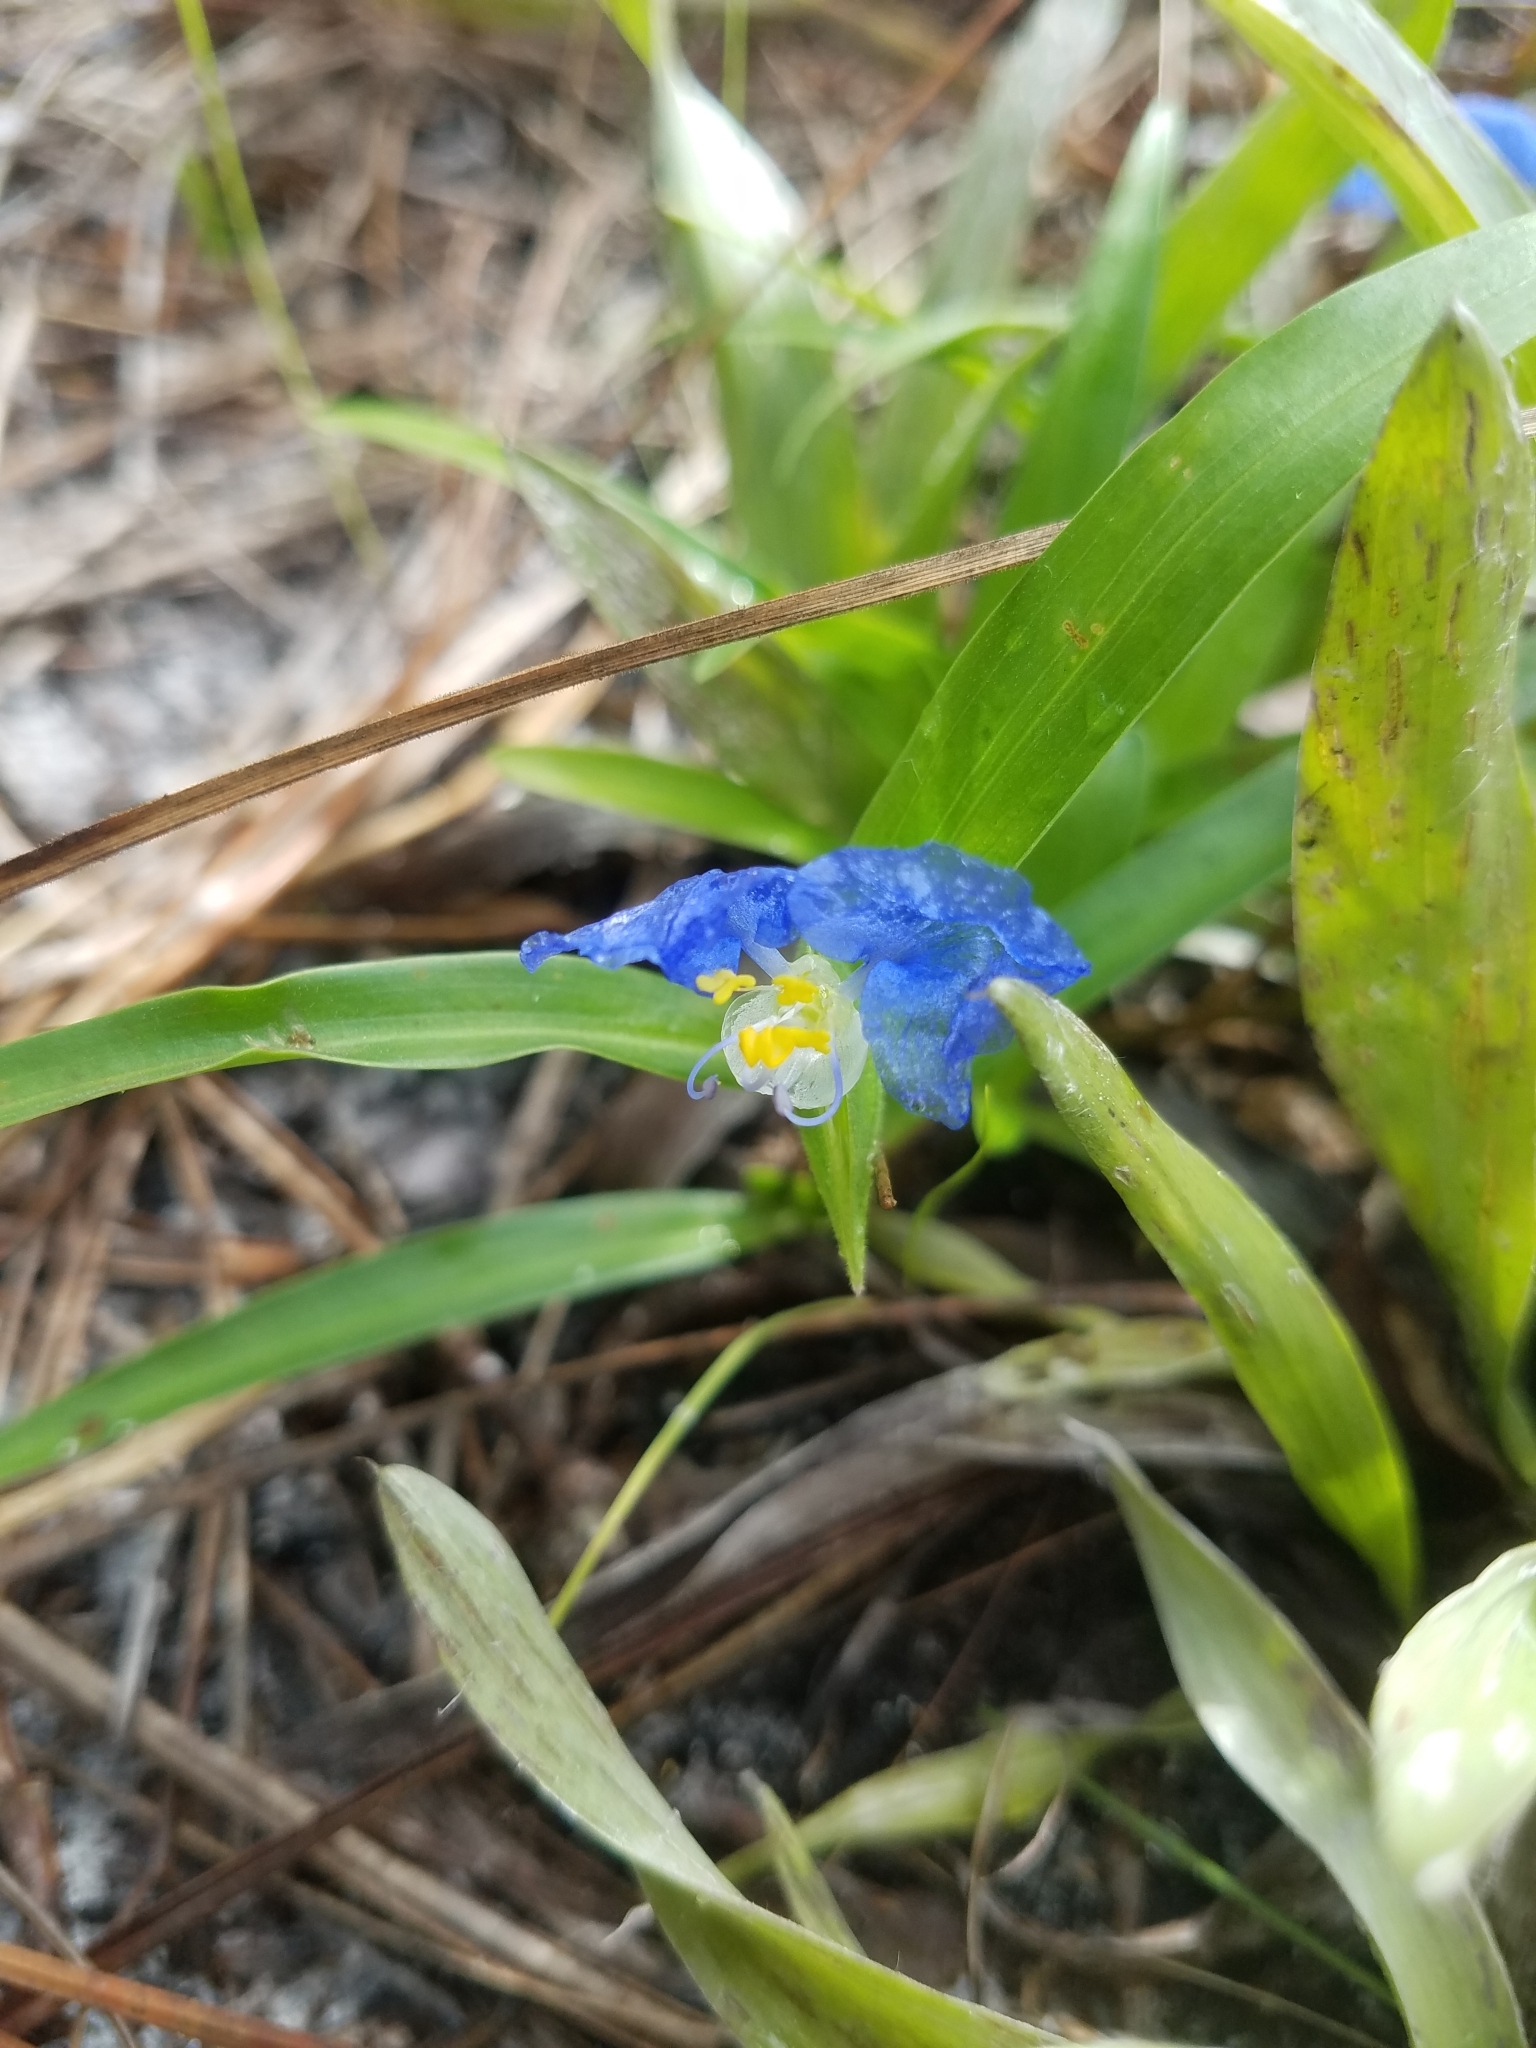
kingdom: Plantae
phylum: Tracheophyta
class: Liliopsida
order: Commelinales
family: Commelinaceae
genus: Commelina
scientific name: Commelina erecta
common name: Blousel blommetjie
